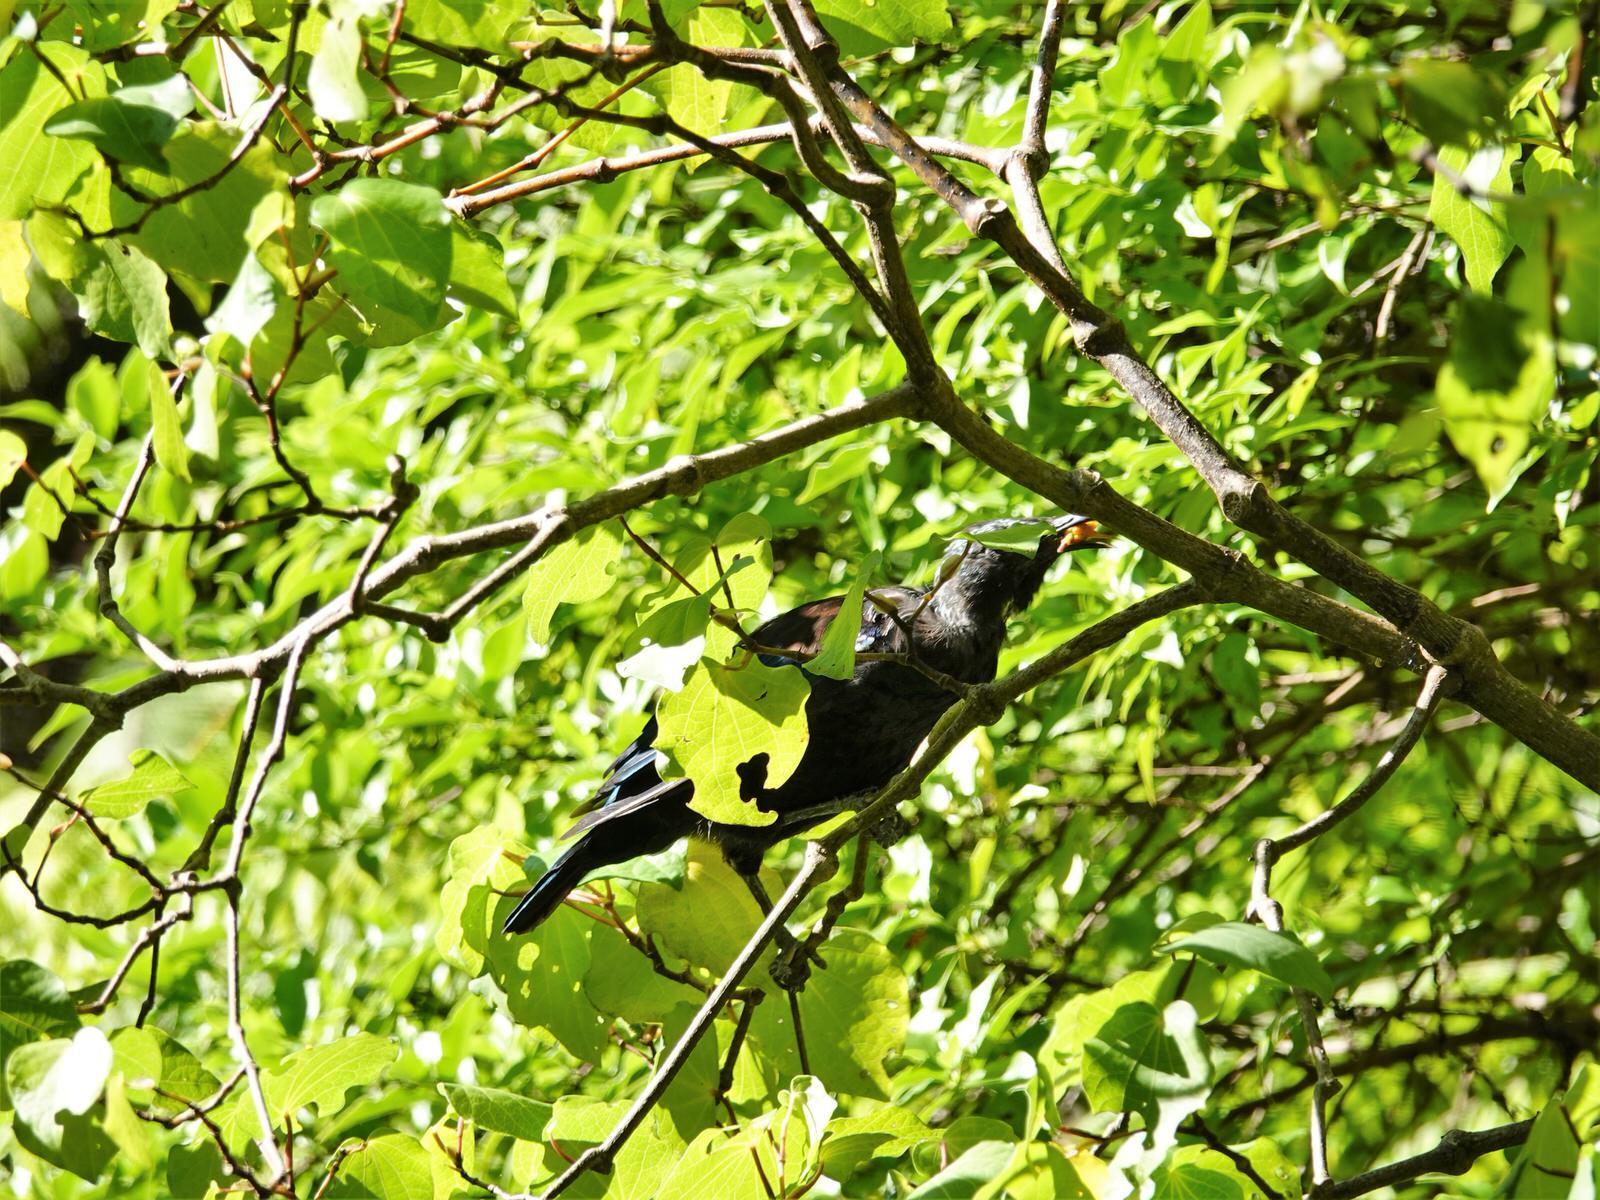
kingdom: Animalia
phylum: Chordata
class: Aves
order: Passeriformes
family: Meliphagidae
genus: Prosthemadera
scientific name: Prosthemadera novaeseelandiae
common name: Tui
